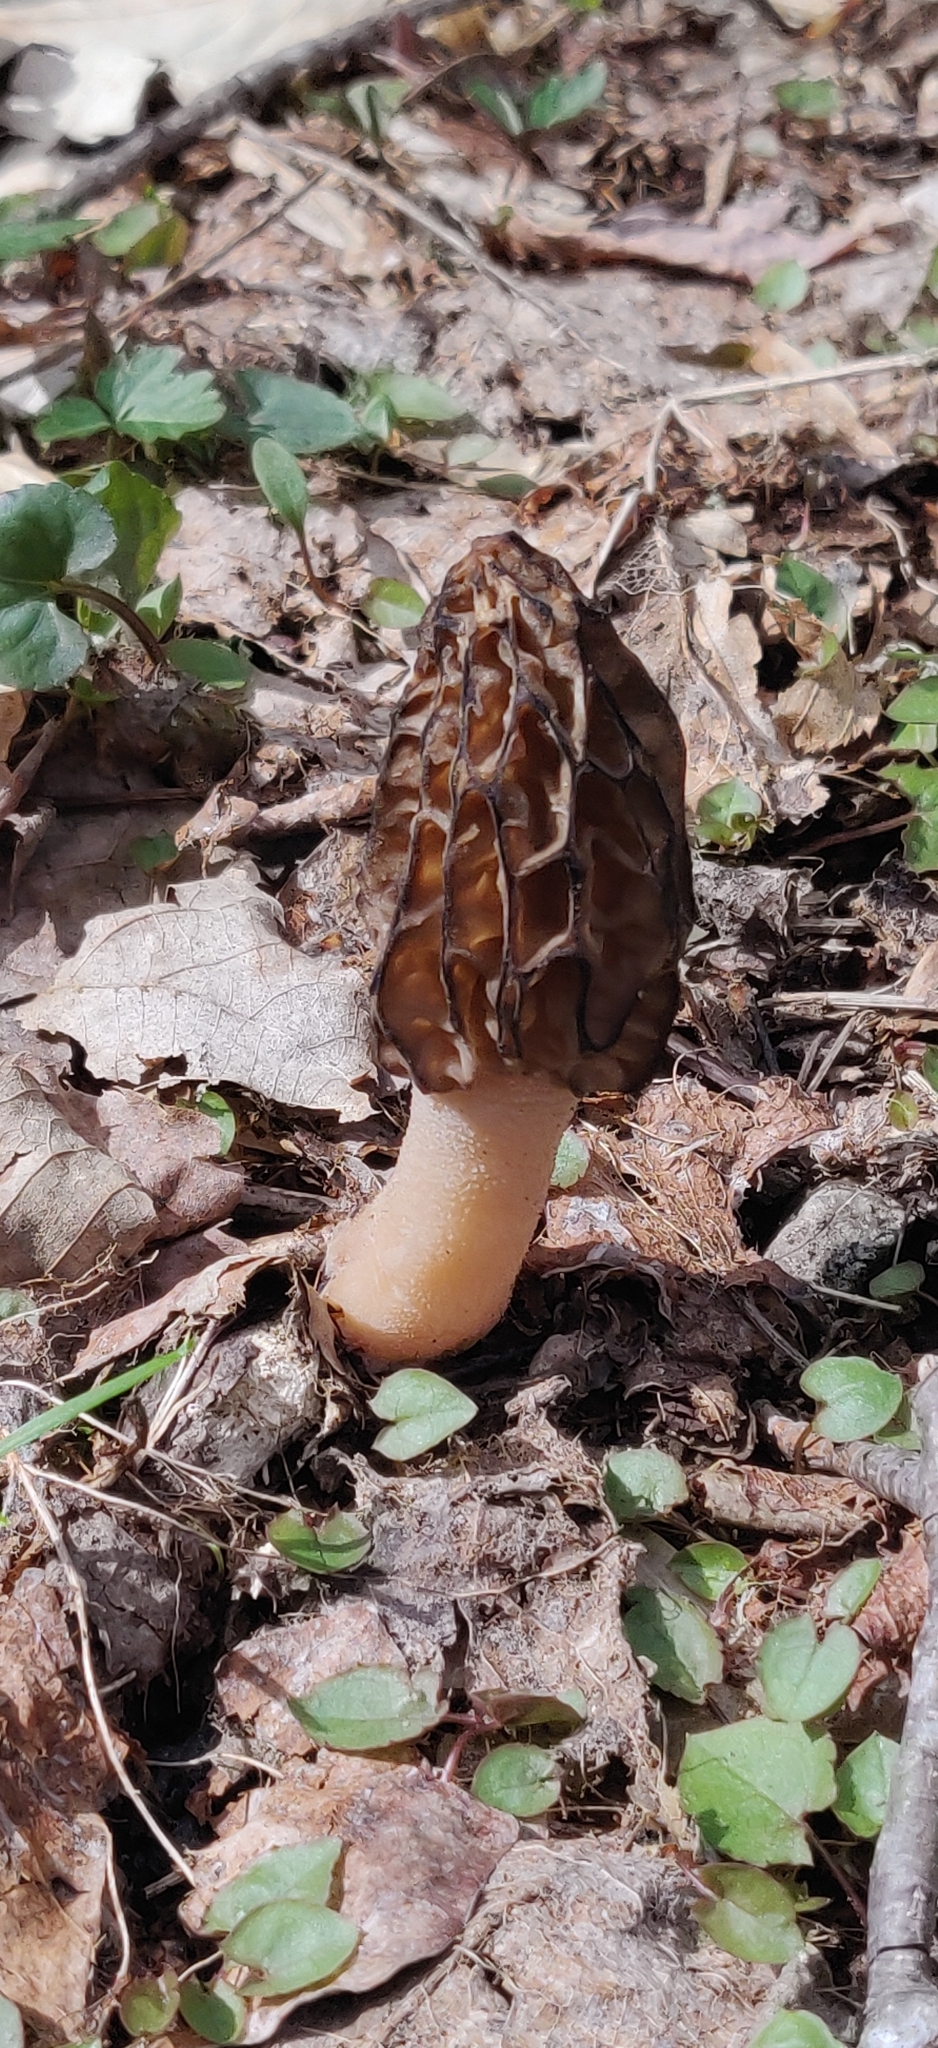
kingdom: Fungi
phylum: Ascomycota
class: Pezizomycetes
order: Pezizales
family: Morchellaceae
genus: Morchella
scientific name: Morchella angusticeps
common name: Black morel
